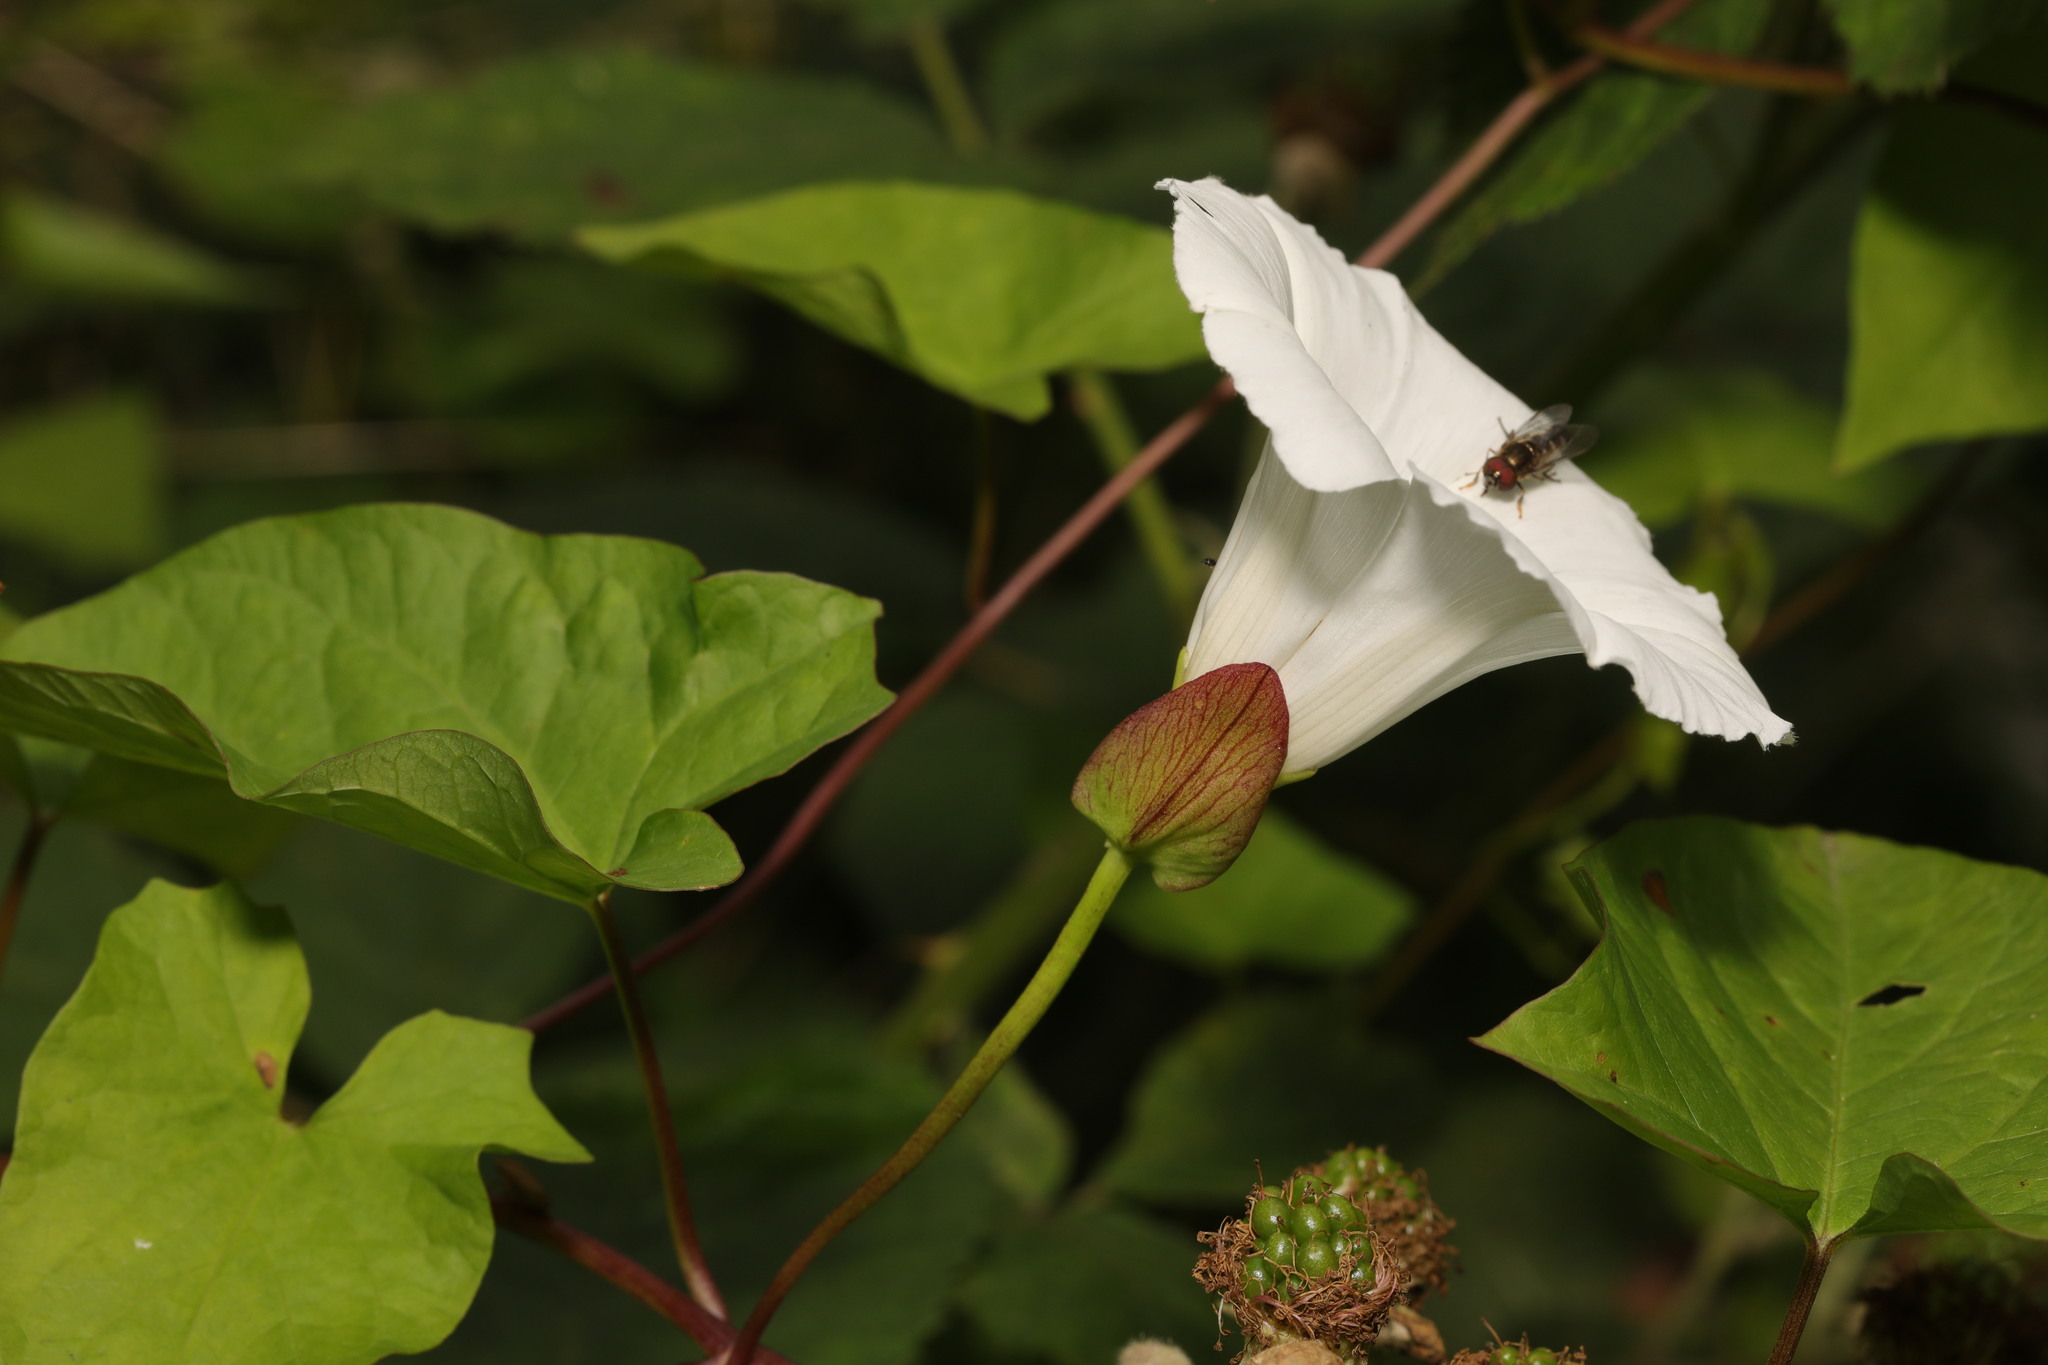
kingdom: Plantae
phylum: Tracheophyta
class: Magnoliopsida
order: Solanales
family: Convolvulaceae
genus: Calystegia
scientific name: Calystegia sepium
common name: Hedge bindweed
